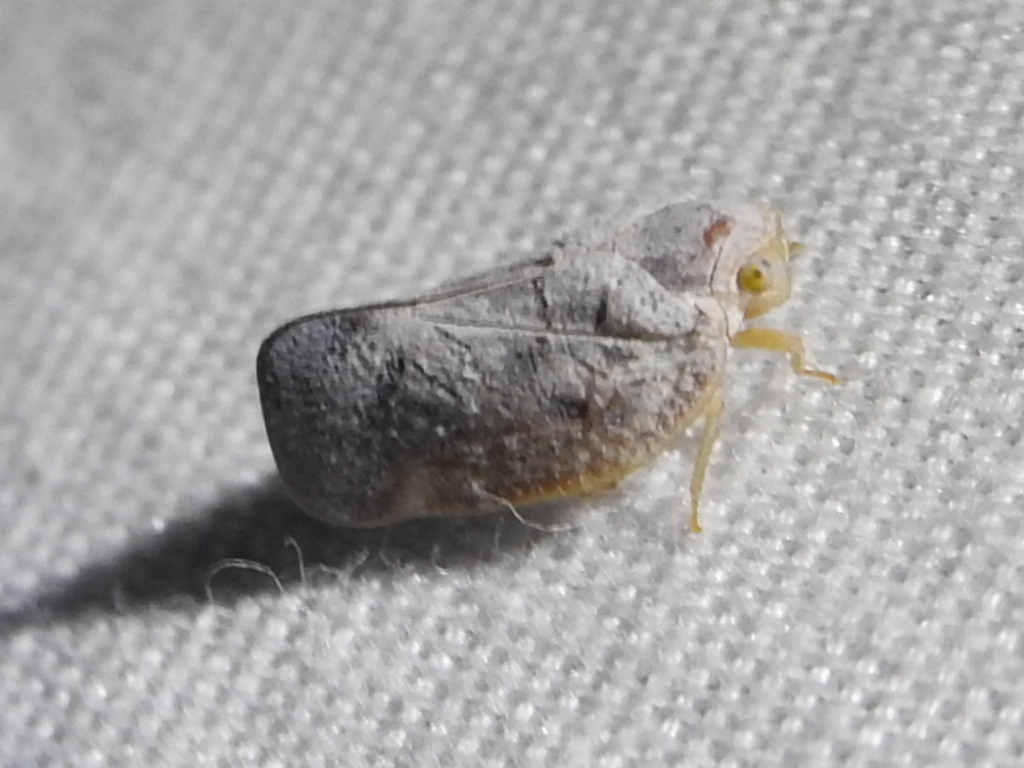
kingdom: Animalia
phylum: Arthropoda
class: Insecta
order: Hemiptera
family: Flatidae
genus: Metcalfa
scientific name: Metcalfa pruinosa
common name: Citrus flatid planthopper
